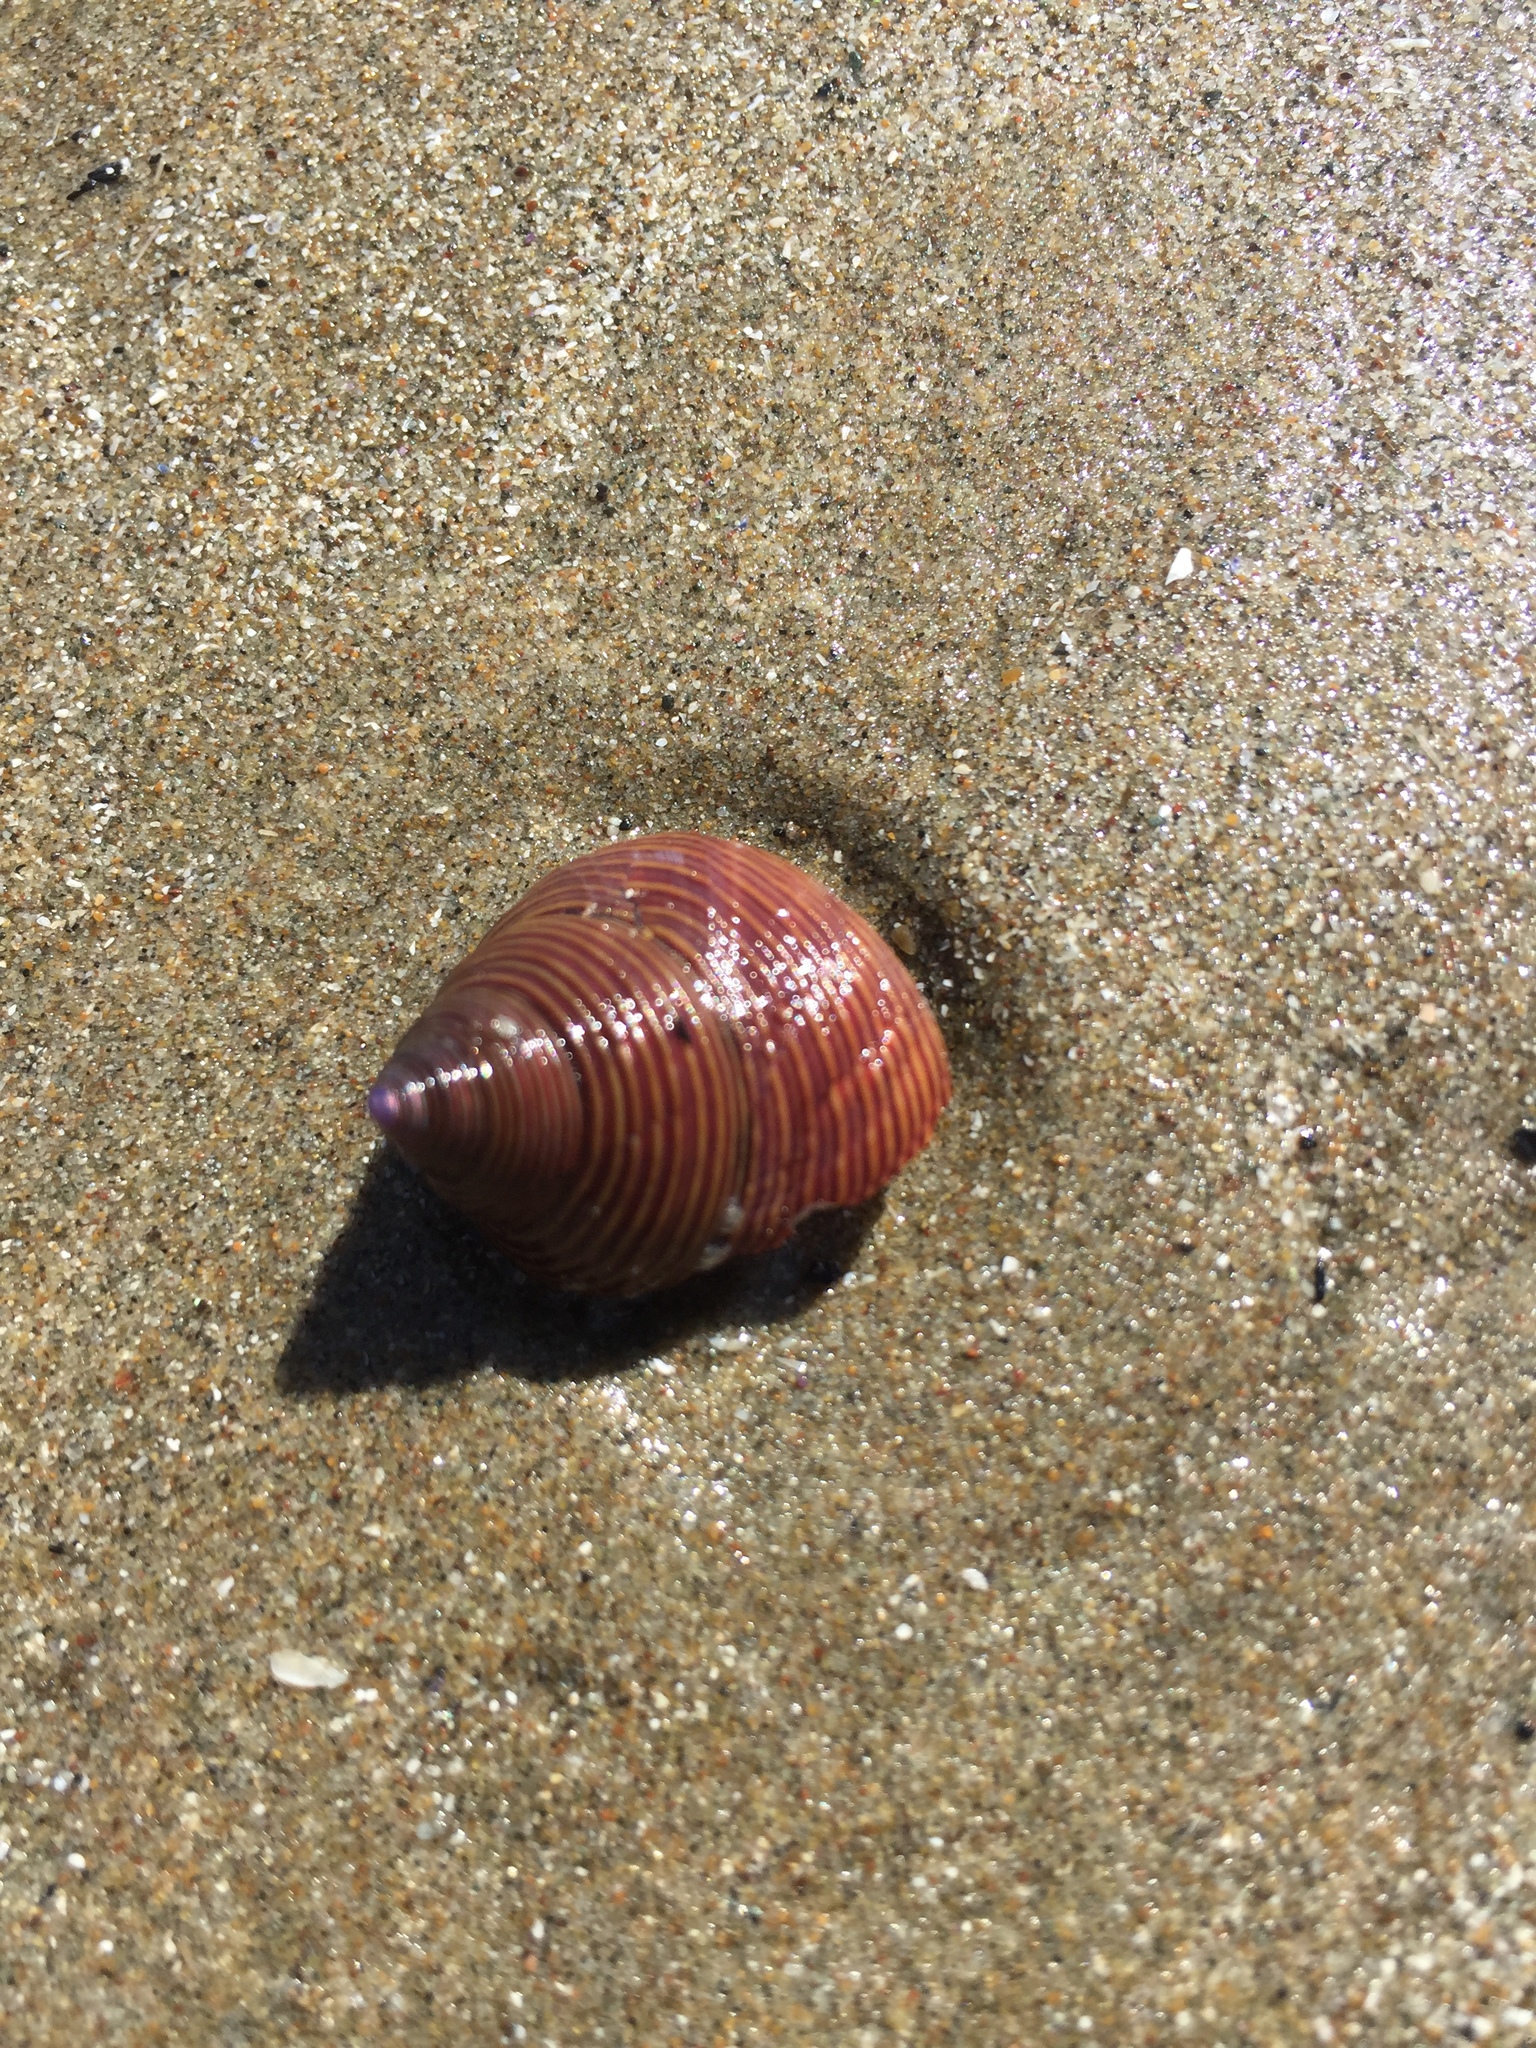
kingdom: Animalia
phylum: Mollusca
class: Gastropoda
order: Trochida
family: Calliostomatidae
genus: Calliostoma
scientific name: Calliostoma ligatum
